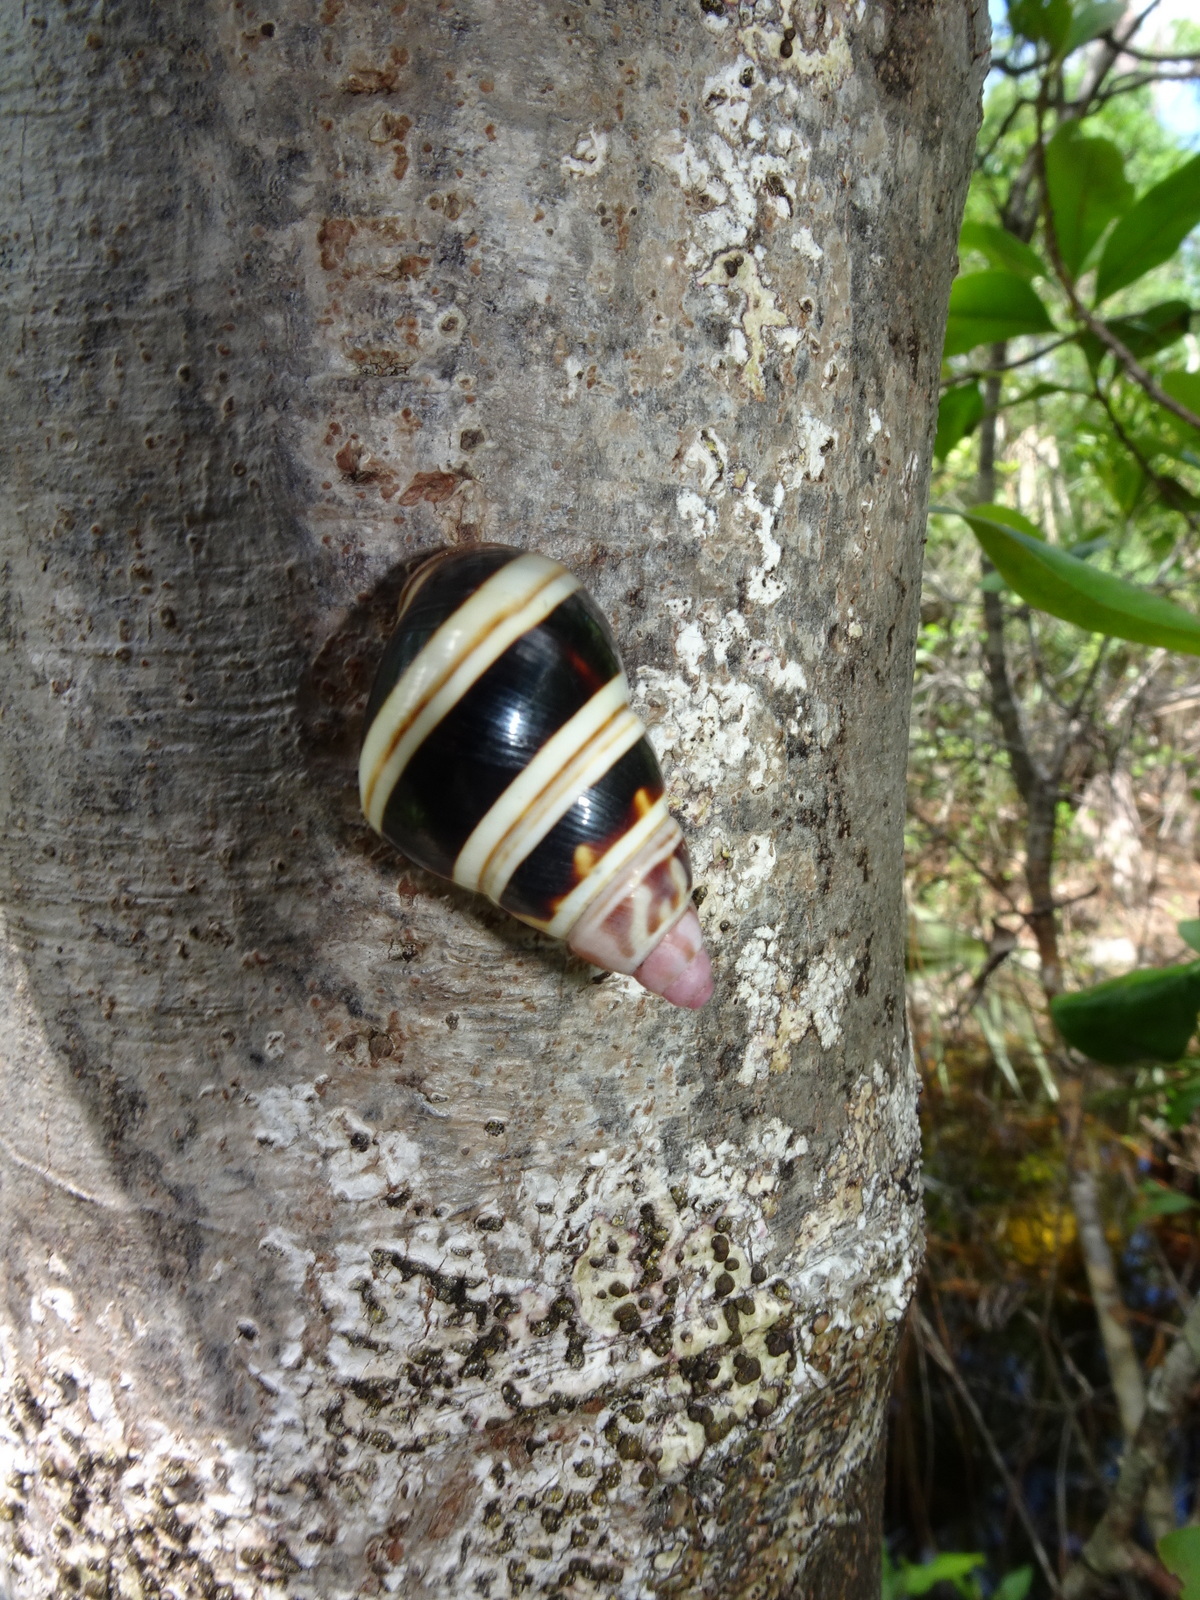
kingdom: Animalia
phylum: Mollusca
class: Gastropoda
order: Stylommatophora
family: Orthalicidae
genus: Liguus
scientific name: Liguus fasciatus
